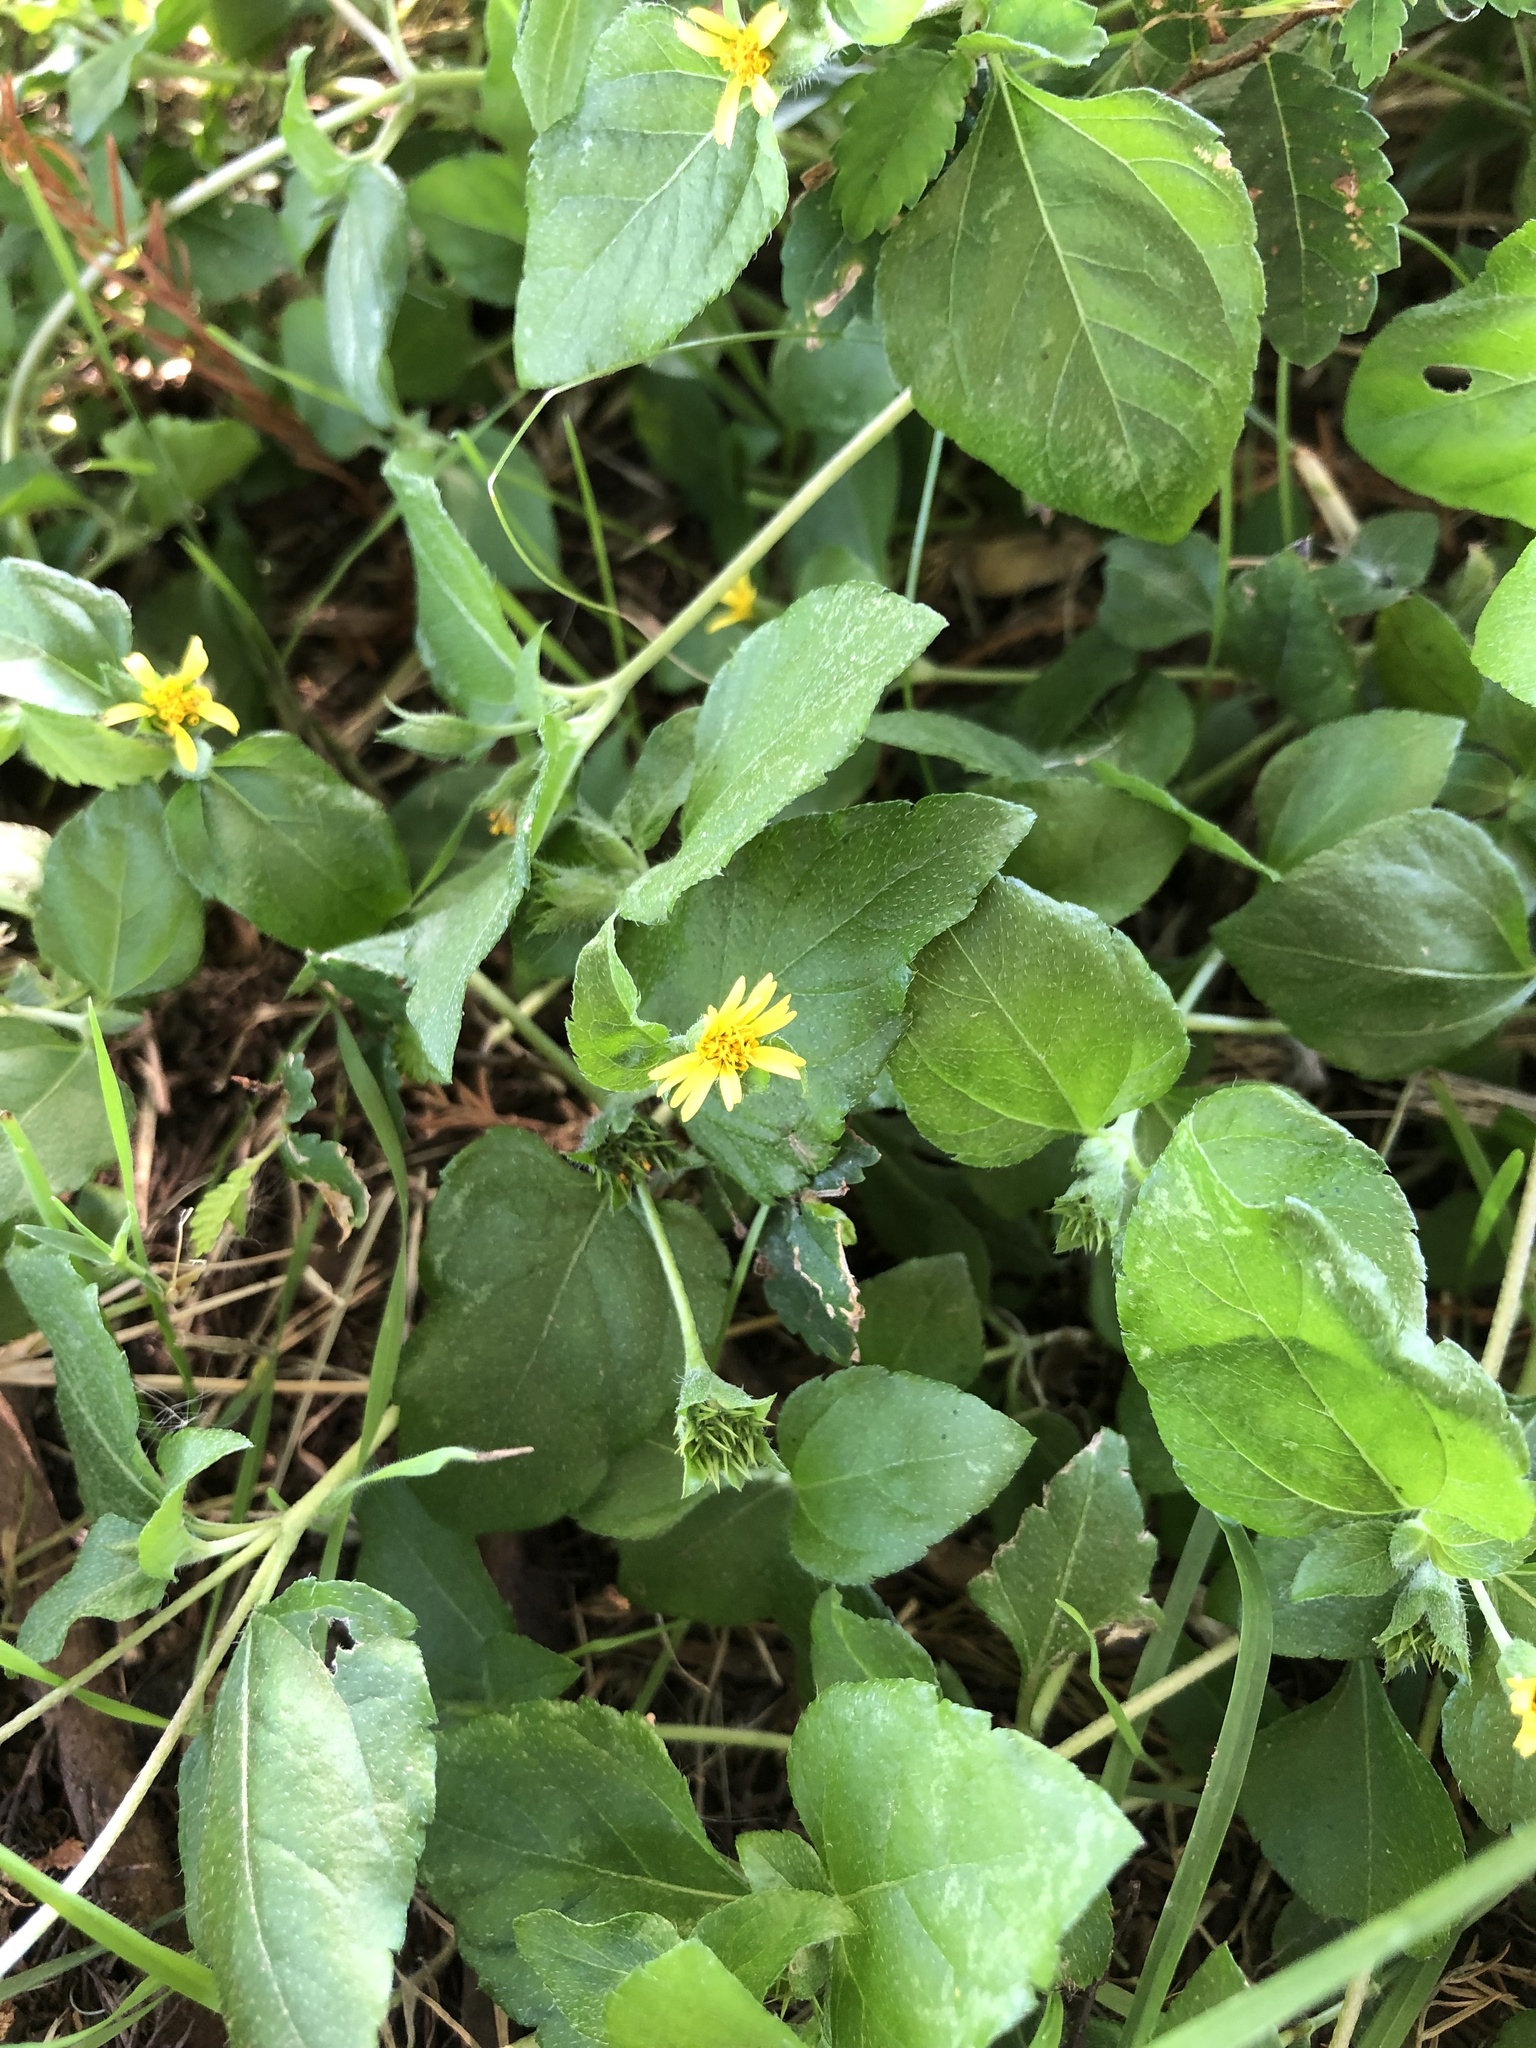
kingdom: Plantae
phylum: Tracheophyta
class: Magnoliopsida
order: Asterales
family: Asteraceae
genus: Calyptocarpus
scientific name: Calyptocarpus vialis
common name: Straggler daisy
